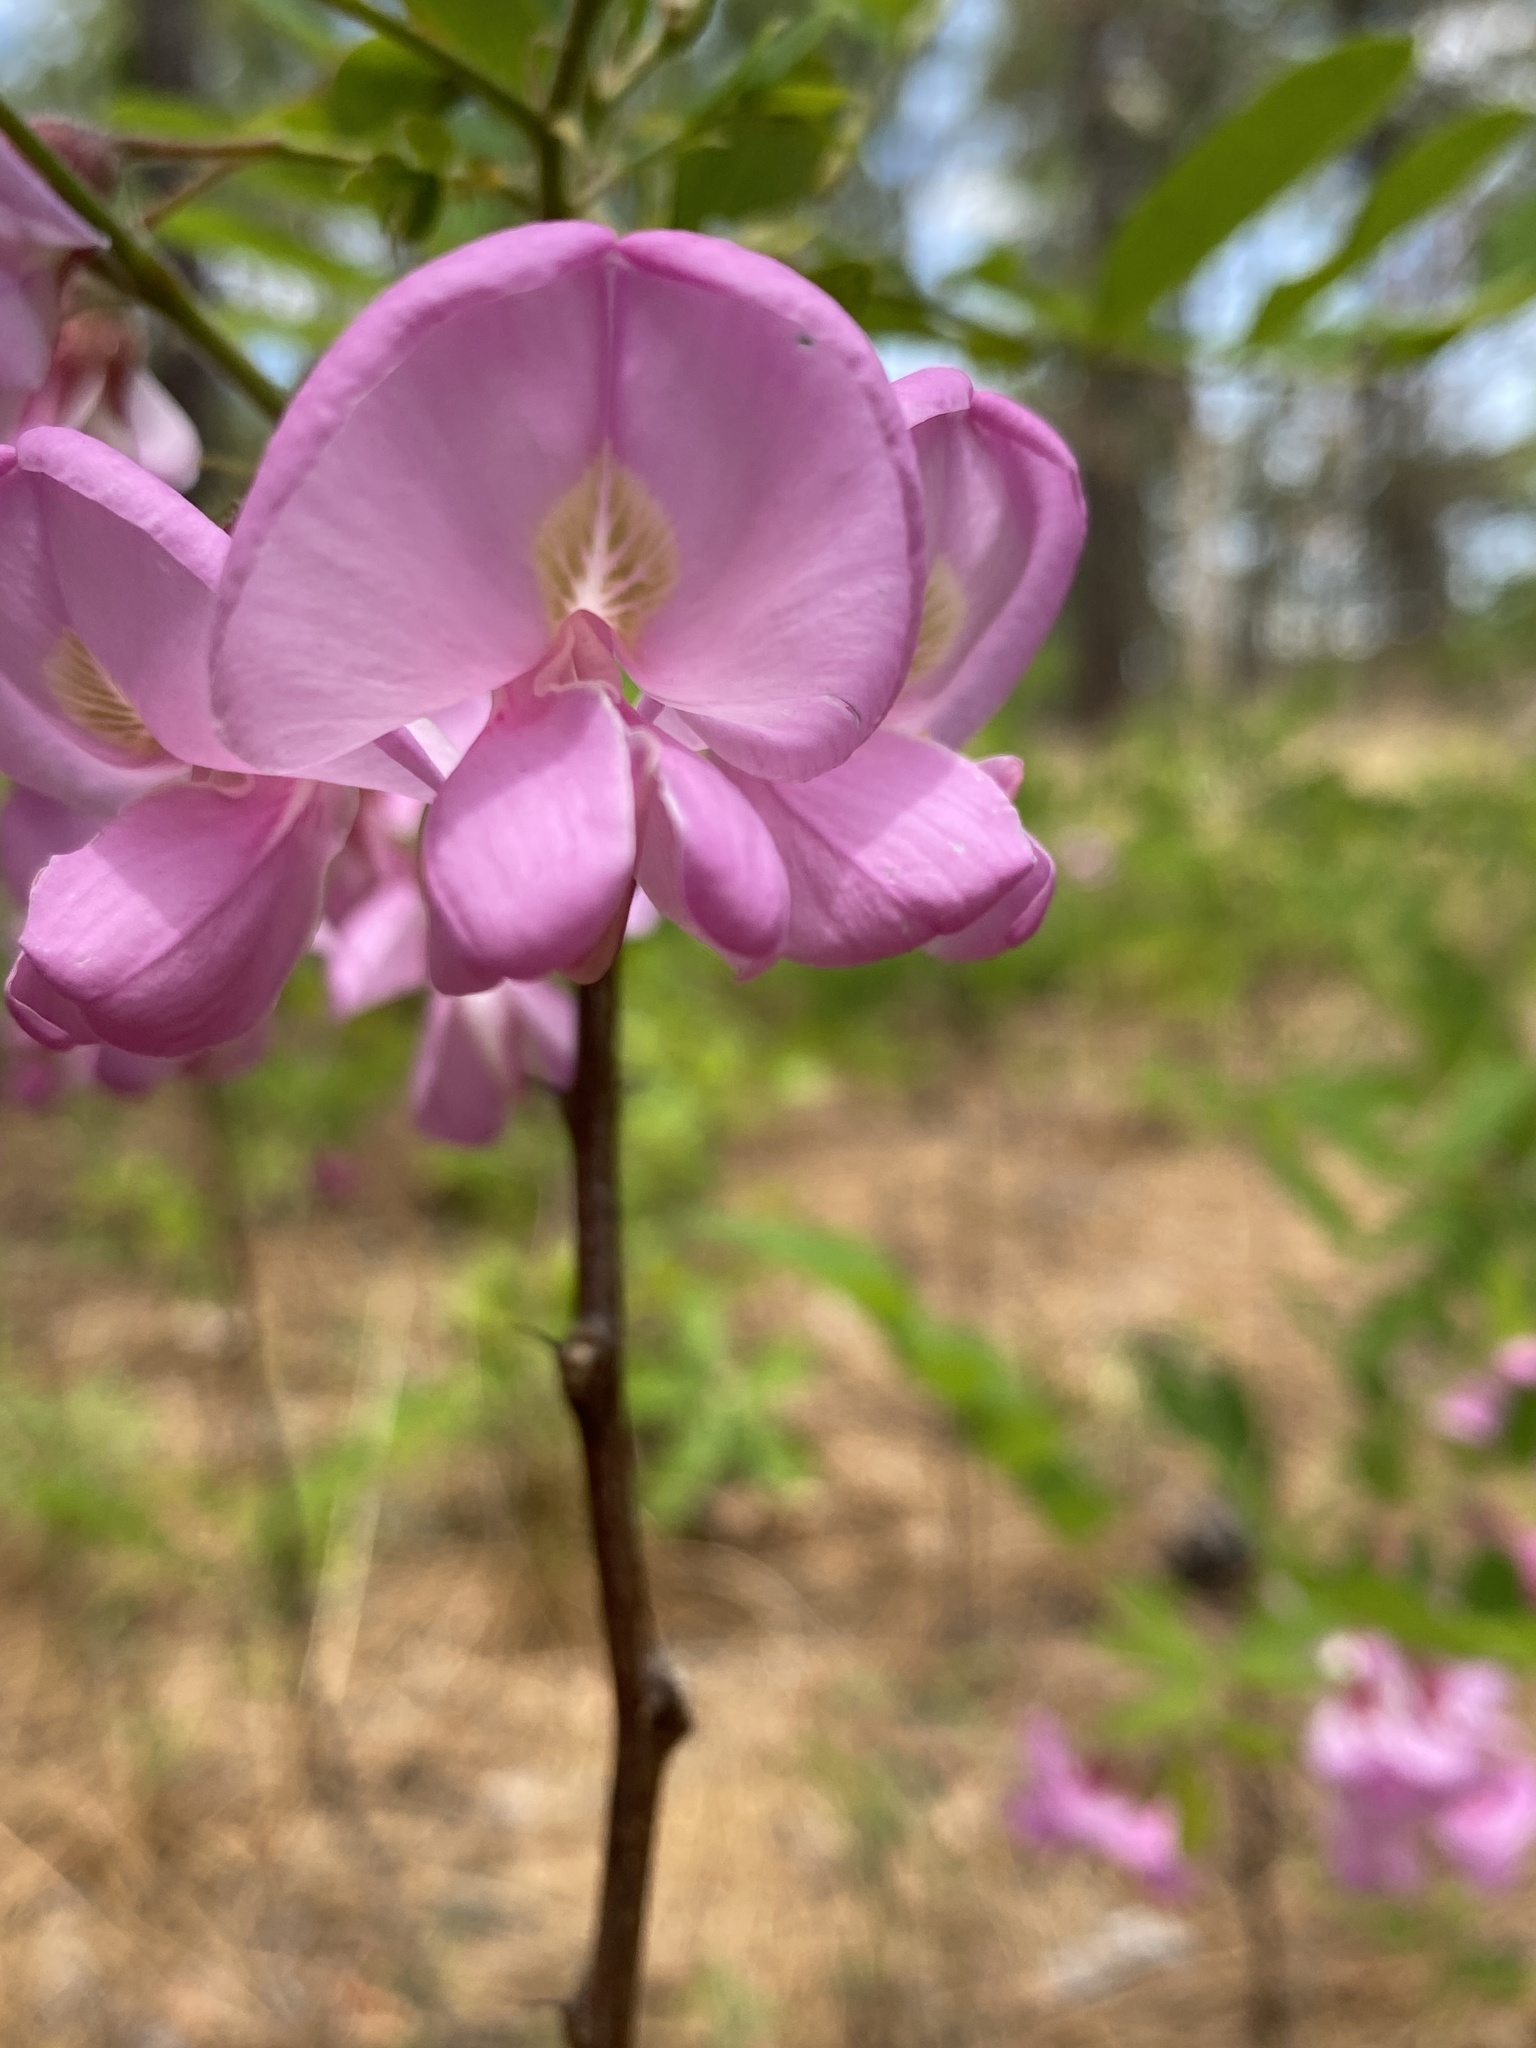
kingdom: Plantae
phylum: Tracheophyta
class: Magnoliopsida
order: Fabales
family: Fabaceae
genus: Robinia
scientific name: Robinia hispida
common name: Bristly locust
